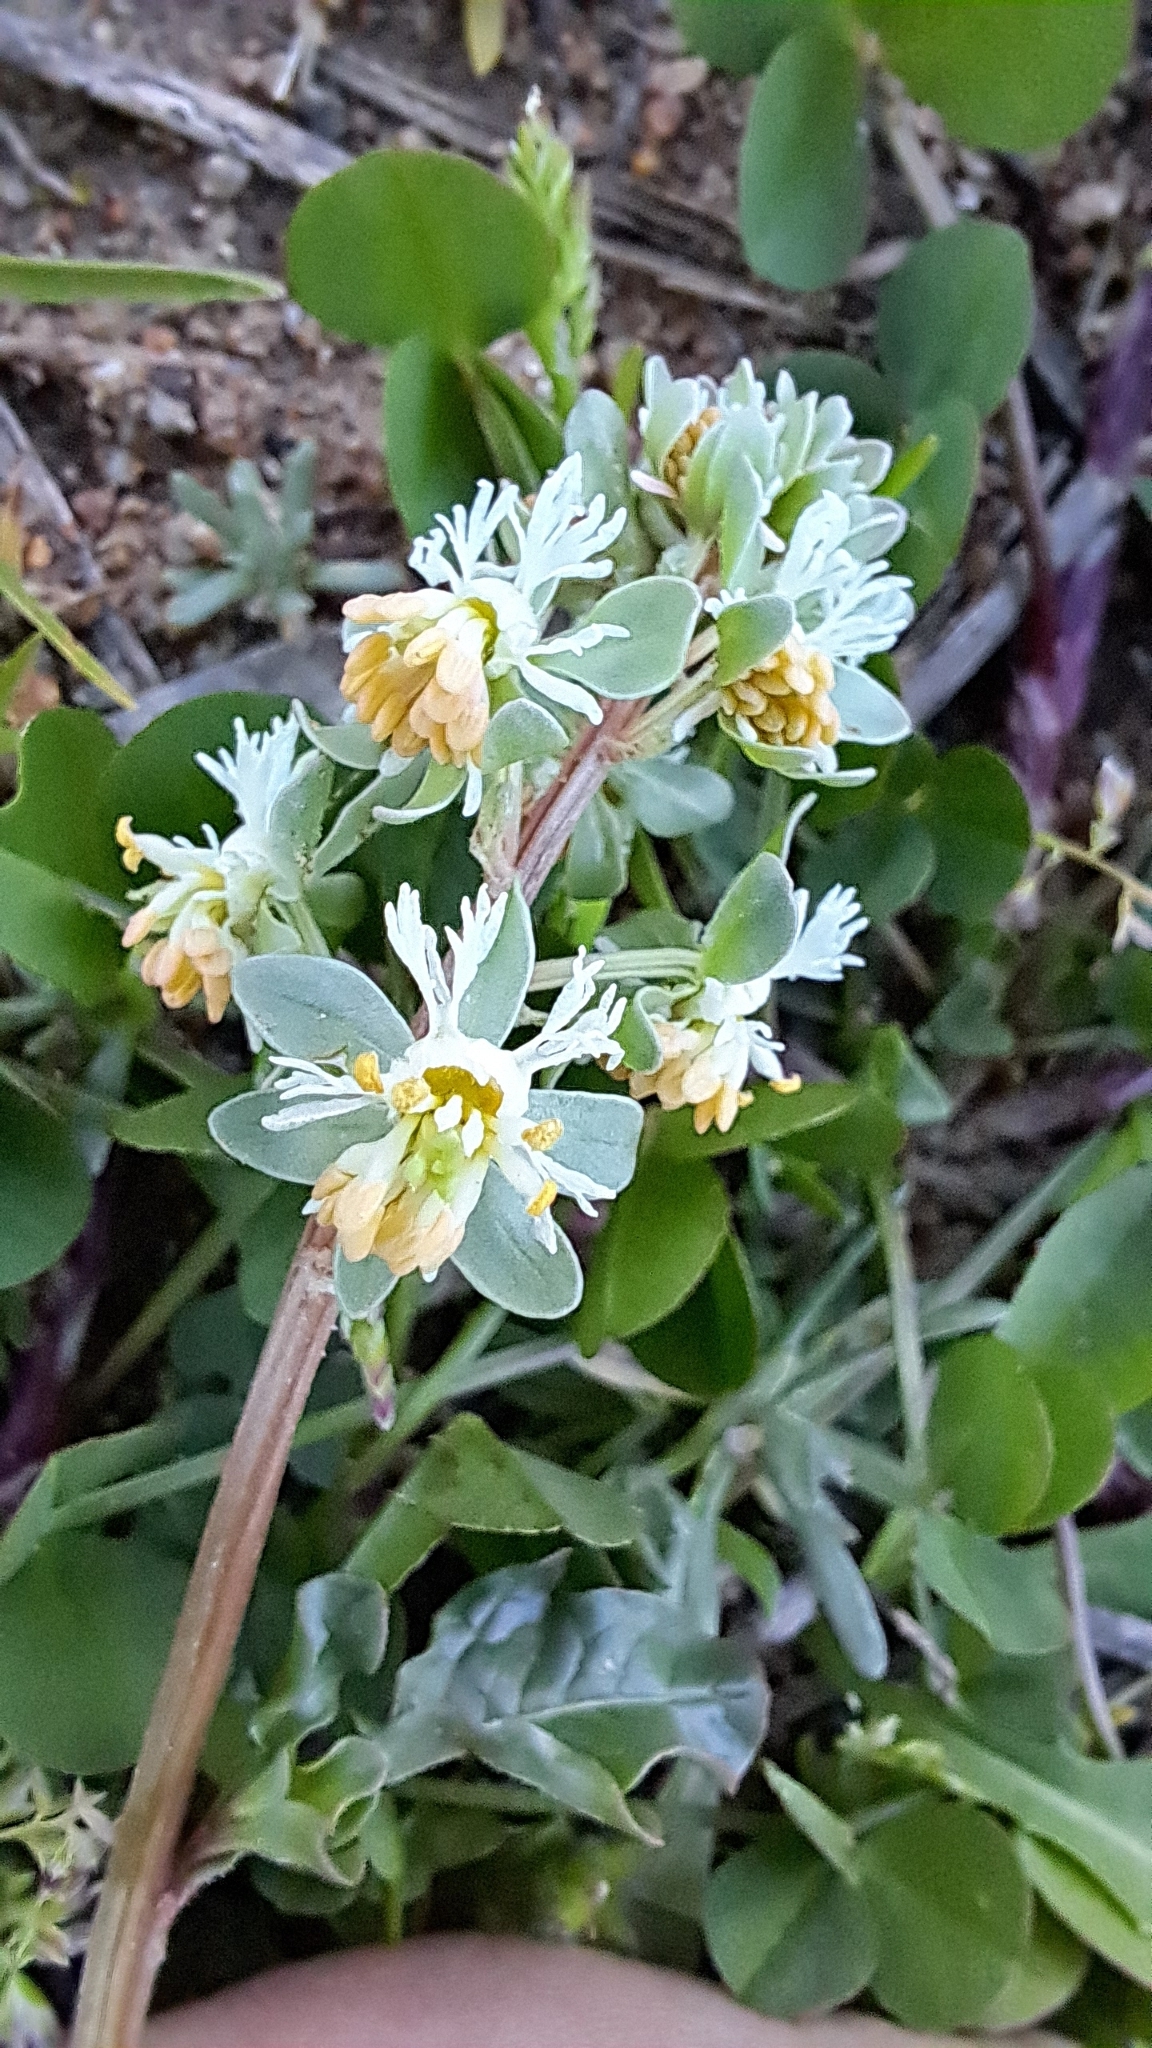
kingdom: Plantae
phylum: Tracheophyta
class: Magnoliopsida
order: Brassicales
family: Resedaceae
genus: Reseda
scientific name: Reseda phyteuma
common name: Corn mignonette
